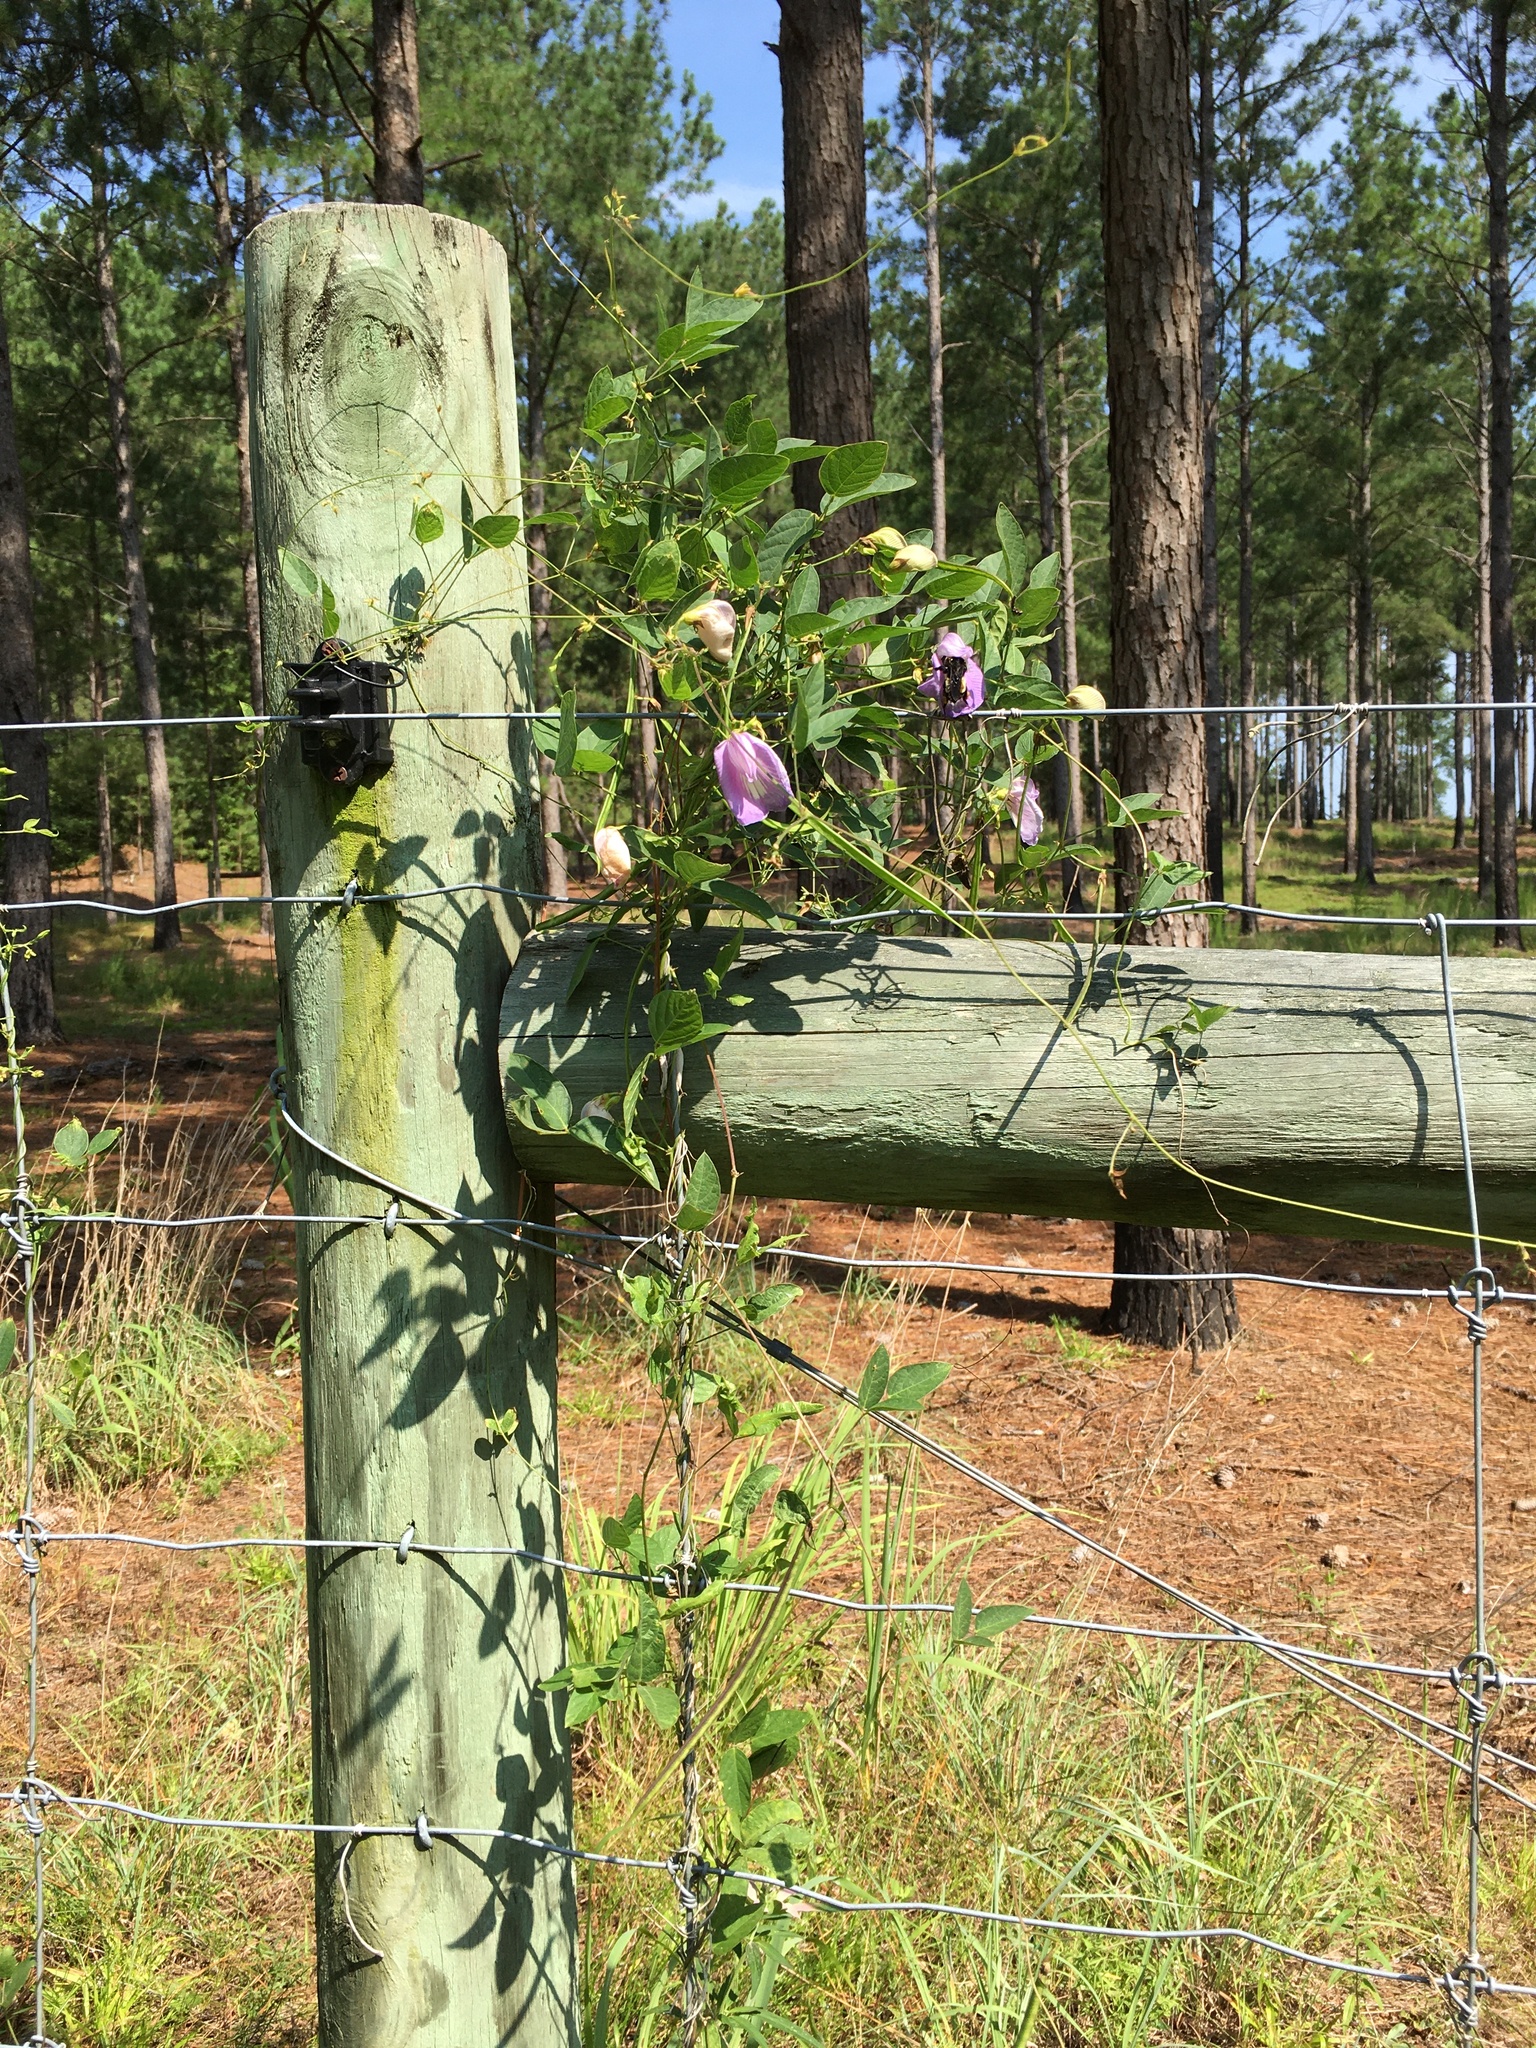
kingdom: Plantae
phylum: Tracheophyta
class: Magnoliopsida
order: Fabales
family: Fabaceae
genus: Centrosema
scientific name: Centrosema virginianum
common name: Butterfly-pea
